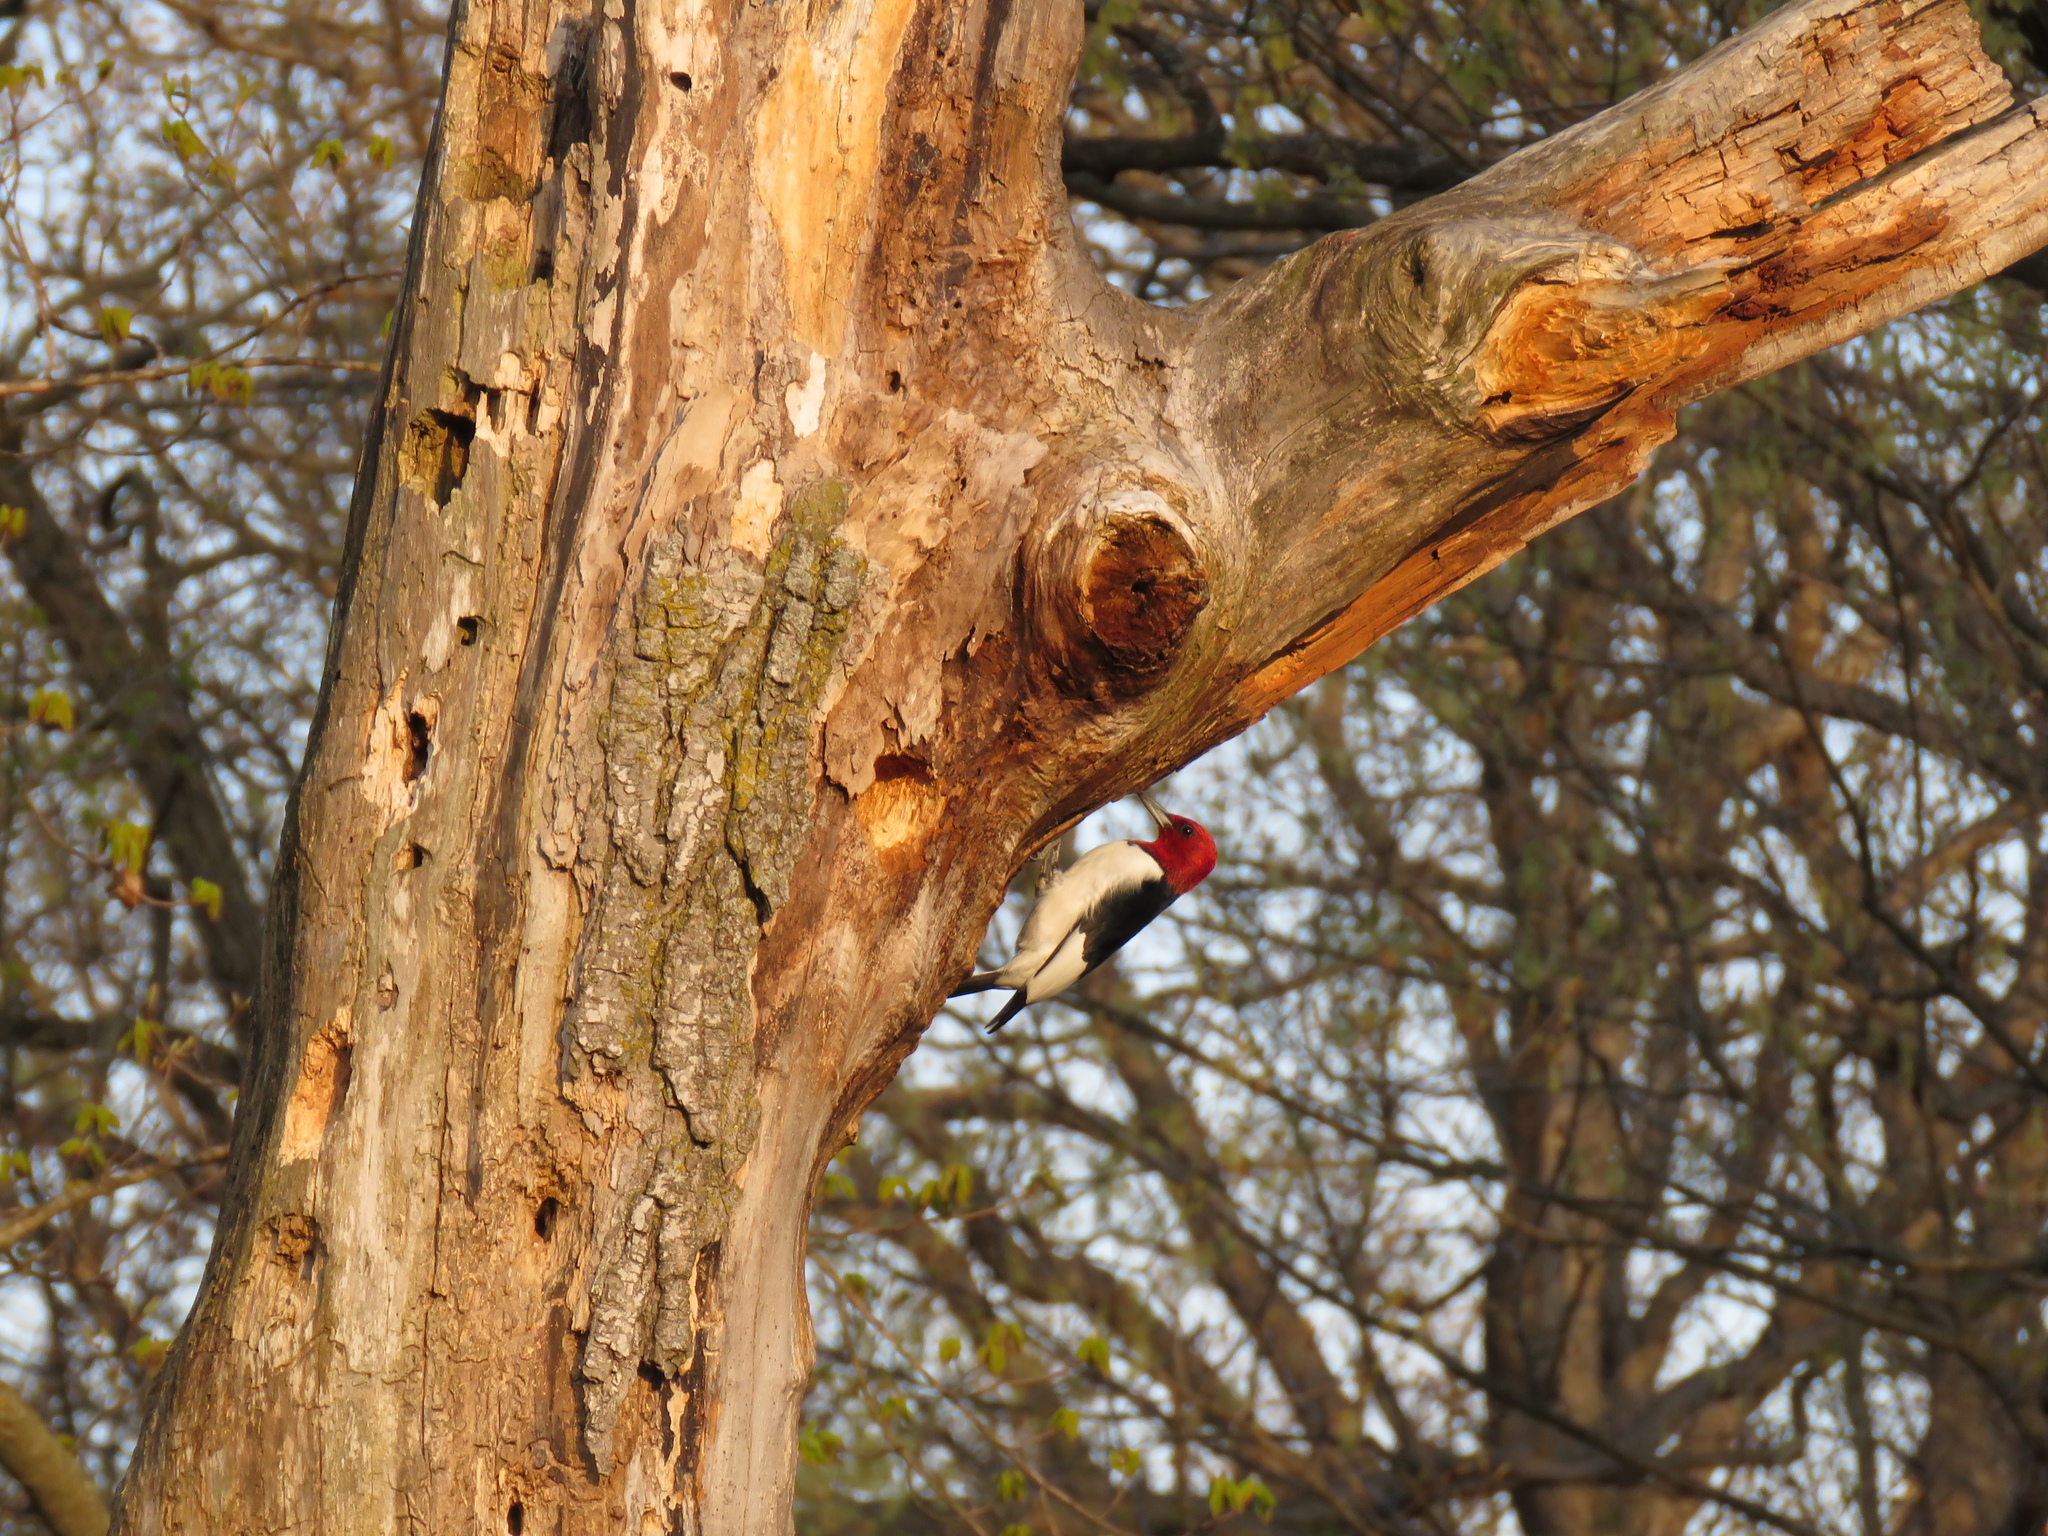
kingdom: Animalia
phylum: Chordata
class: Aves
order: Piciformes
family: Picidae
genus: Melanerpes
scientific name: Melanerpes erythrocephalus
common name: Red-headed woodpecker
